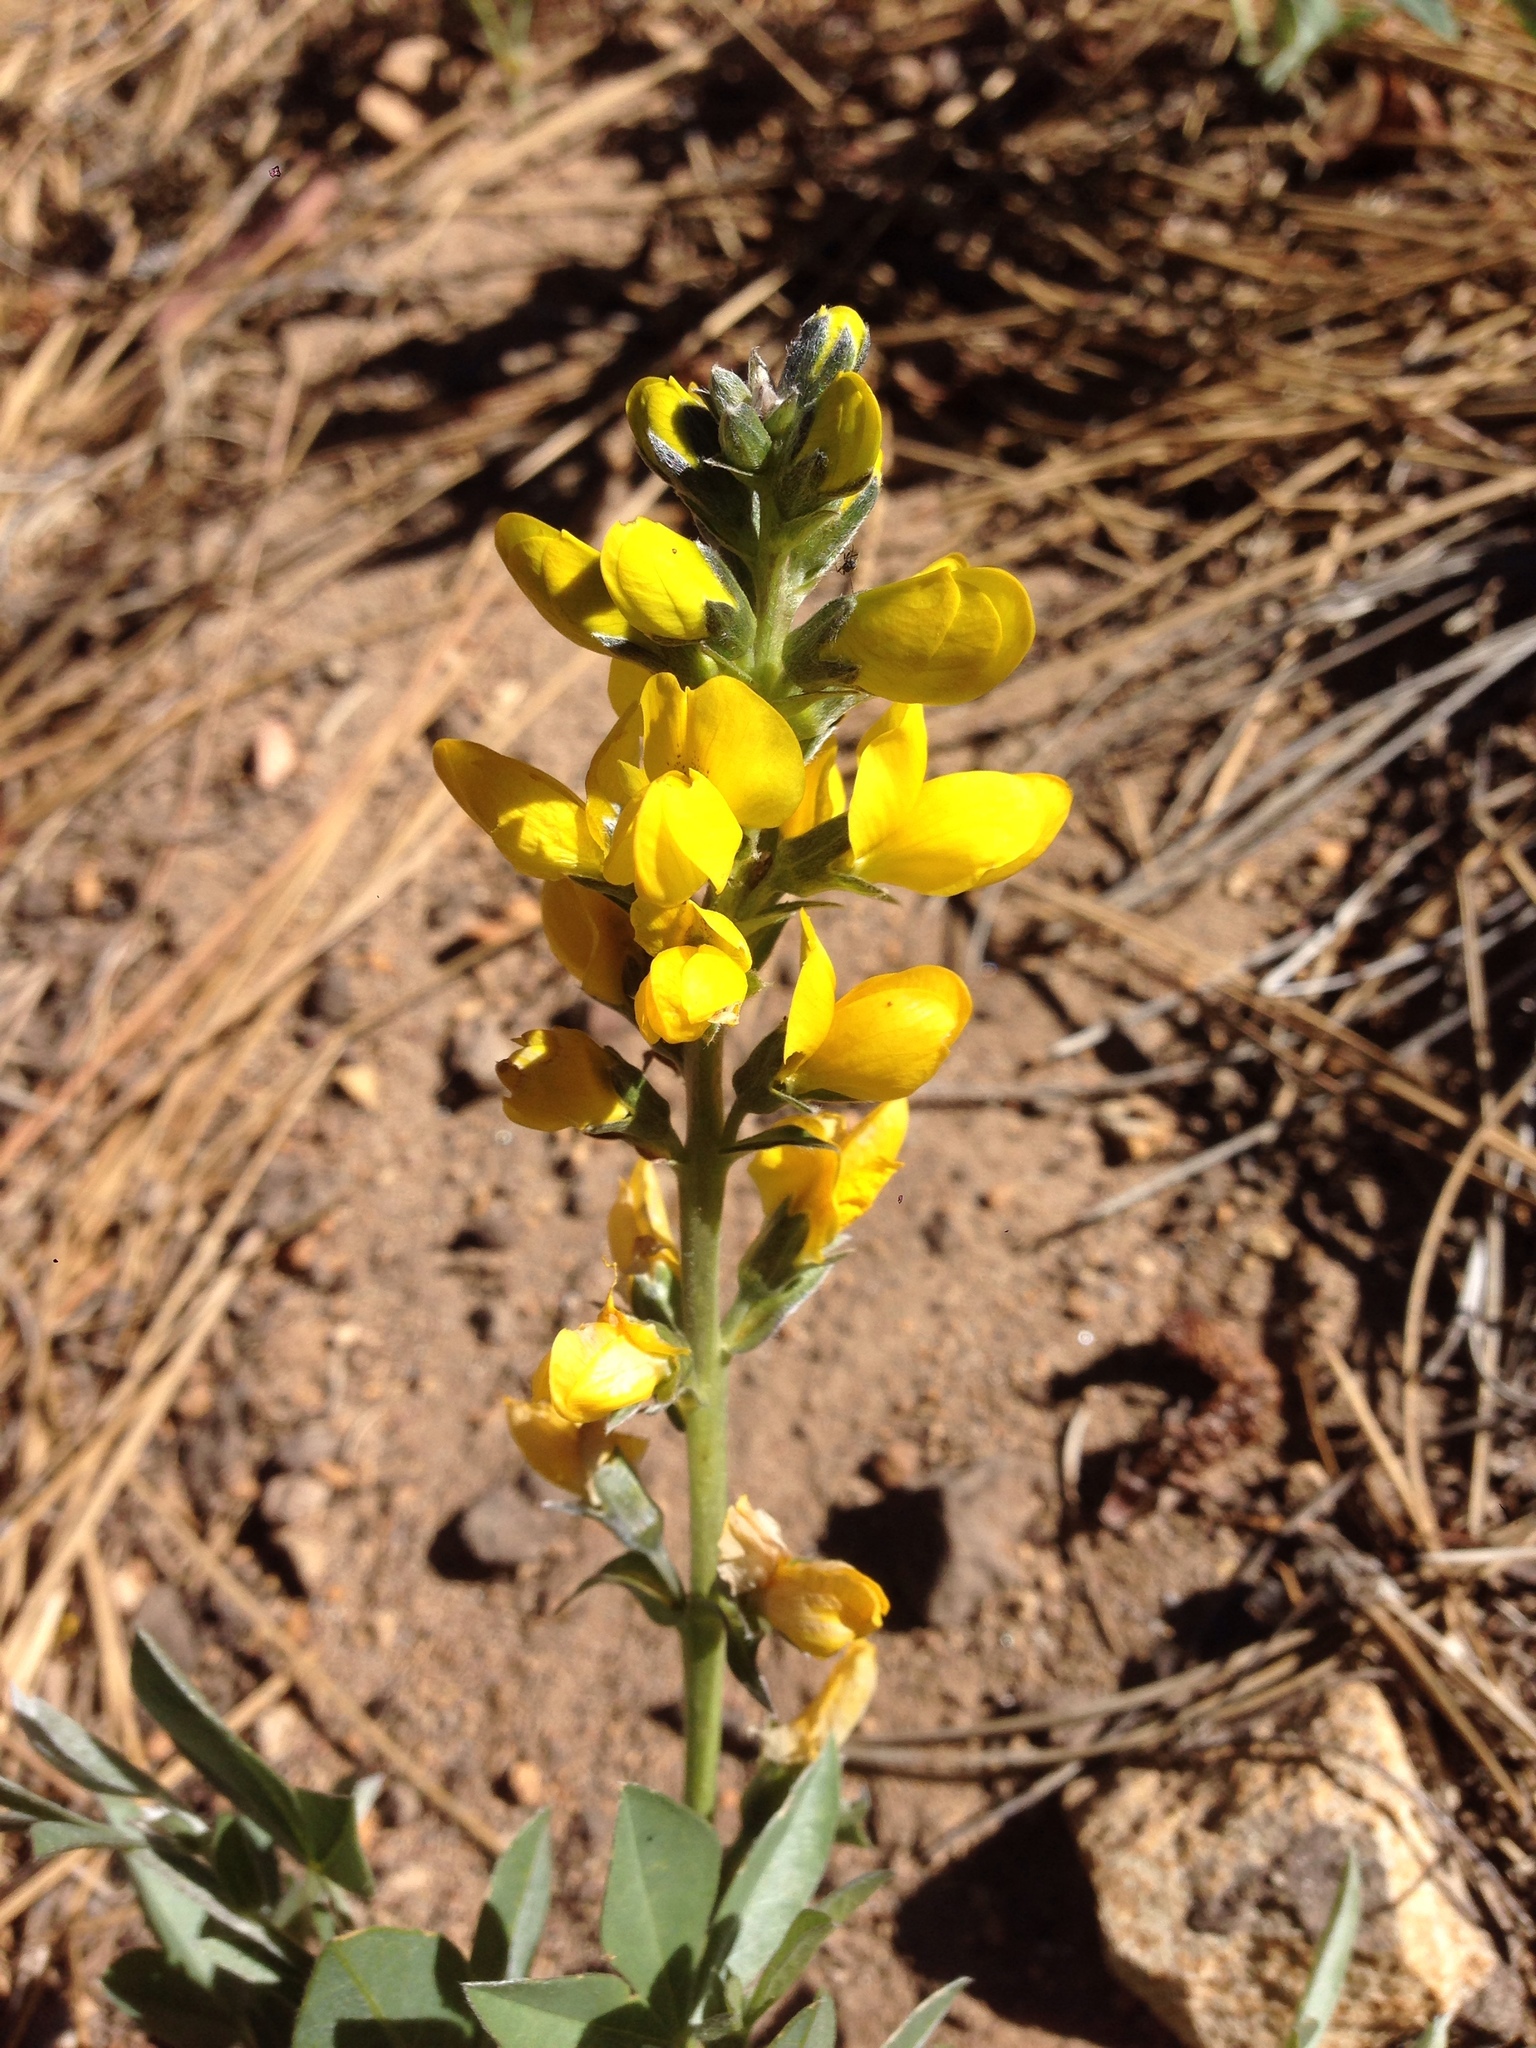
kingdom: Plantae
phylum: Tracheophyta
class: Magnoliopsida
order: Fabales
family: Fabaceae
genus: Thermopsis
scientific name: Thermopsis californica
